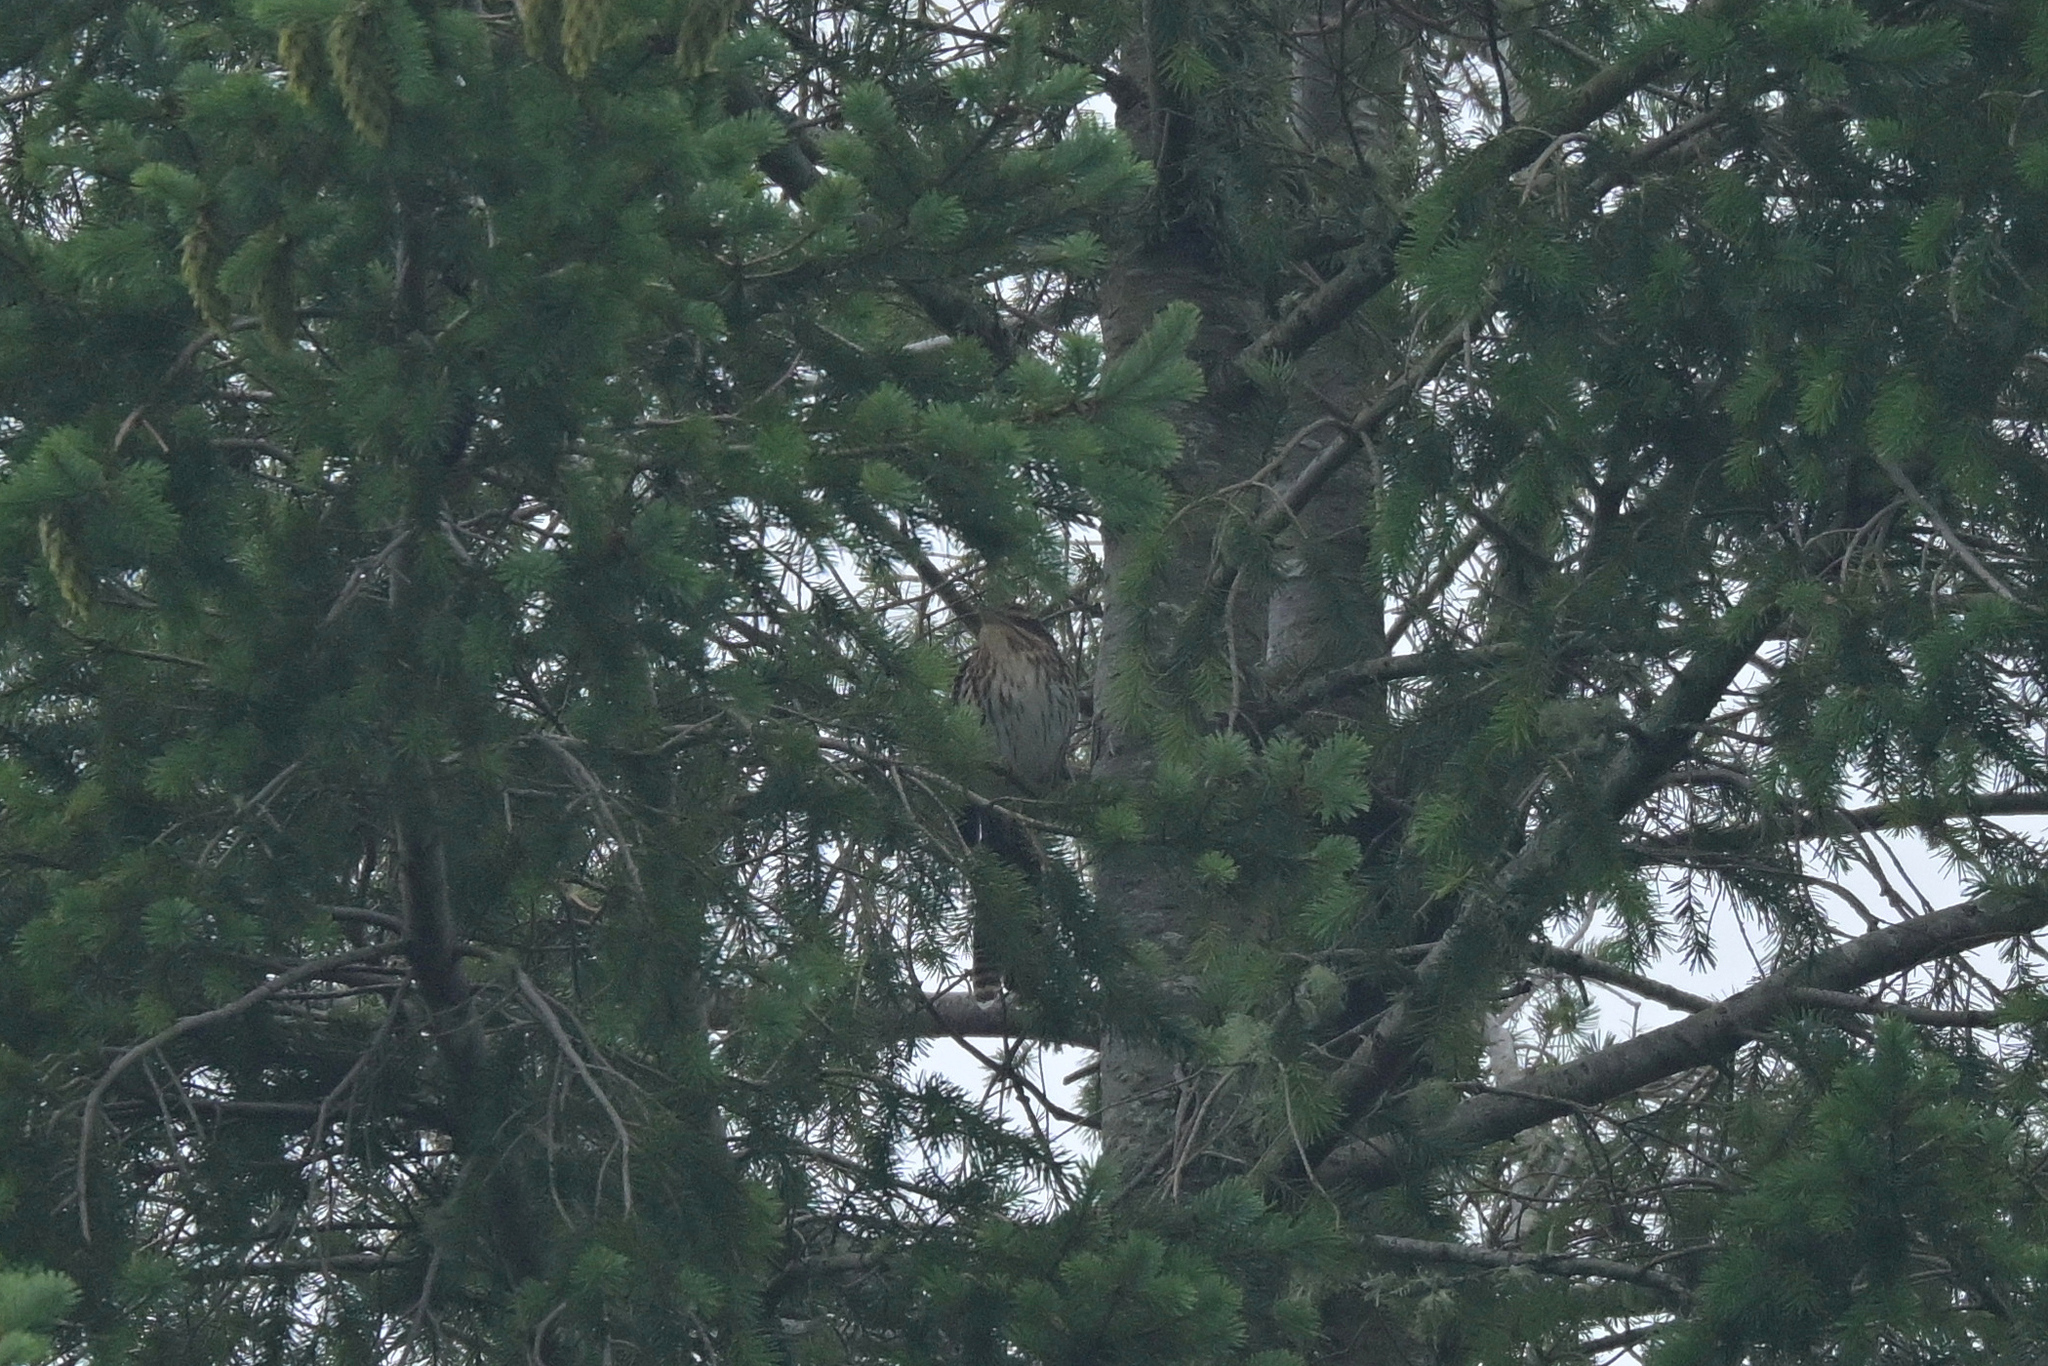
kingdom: Animalia
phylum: Chordata
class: Aves
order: Cuculiformes
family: Cuculidae
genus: Urodynamis
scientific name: Urodynamis taitensis
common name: Long-tailed koel
